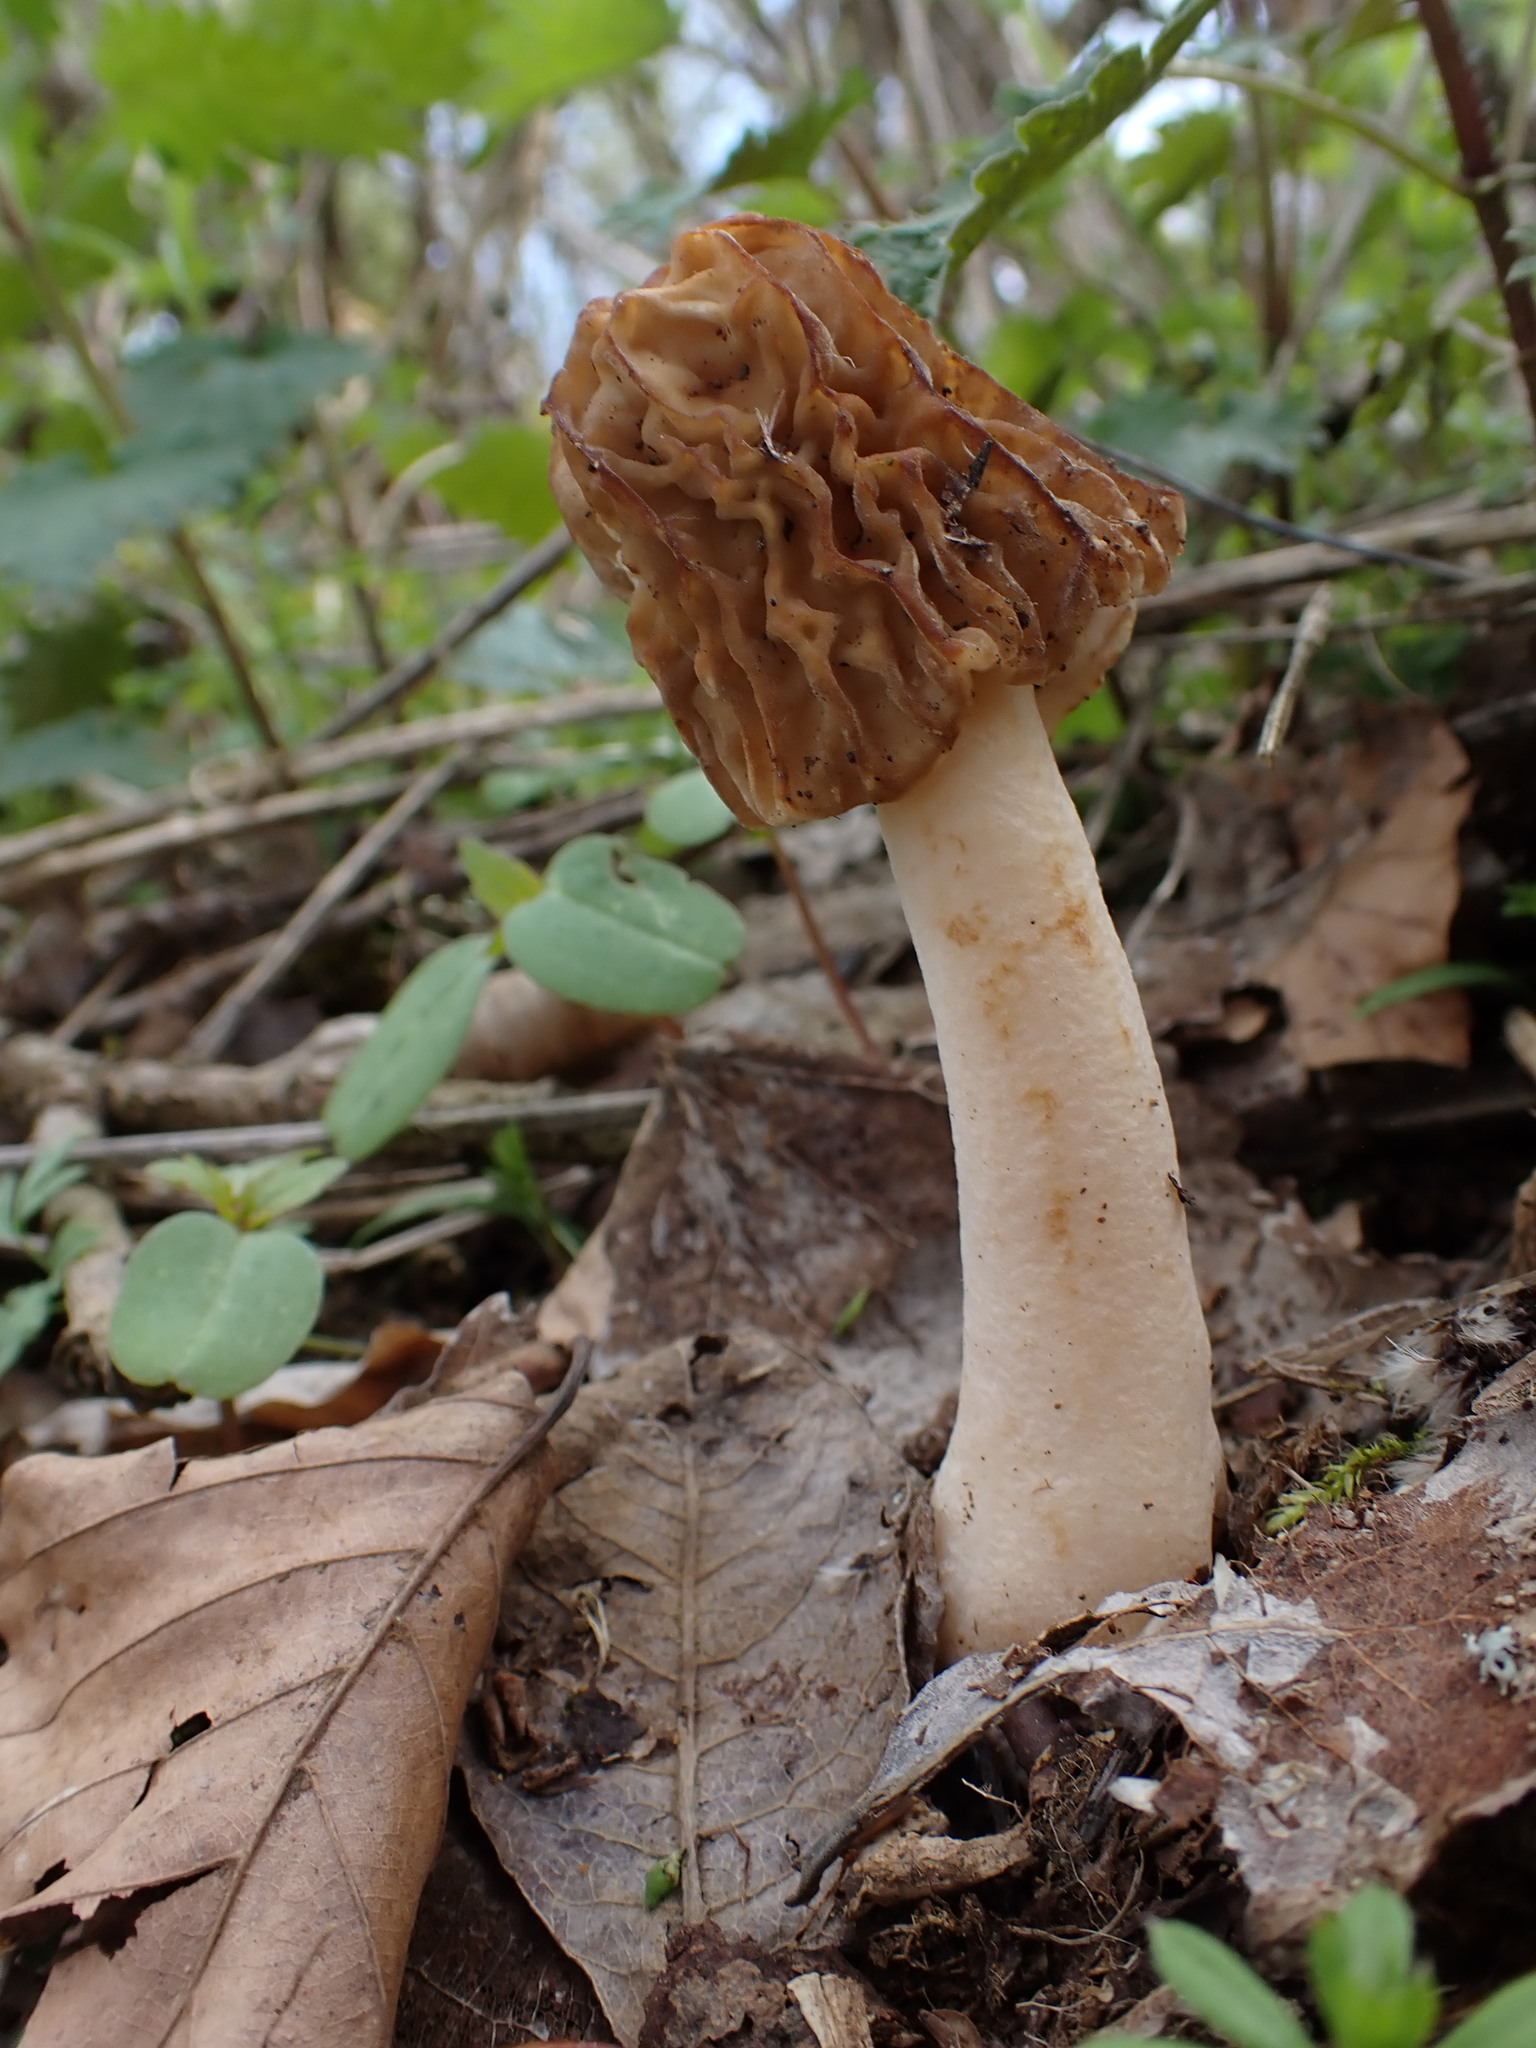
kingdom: Fungi
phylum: Ascomycota
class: Pezizomycetes
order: Pezizales
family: Morchellaceae
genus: Verpa
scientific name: Verpa bohemica
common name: Wrinkled thimble morel
